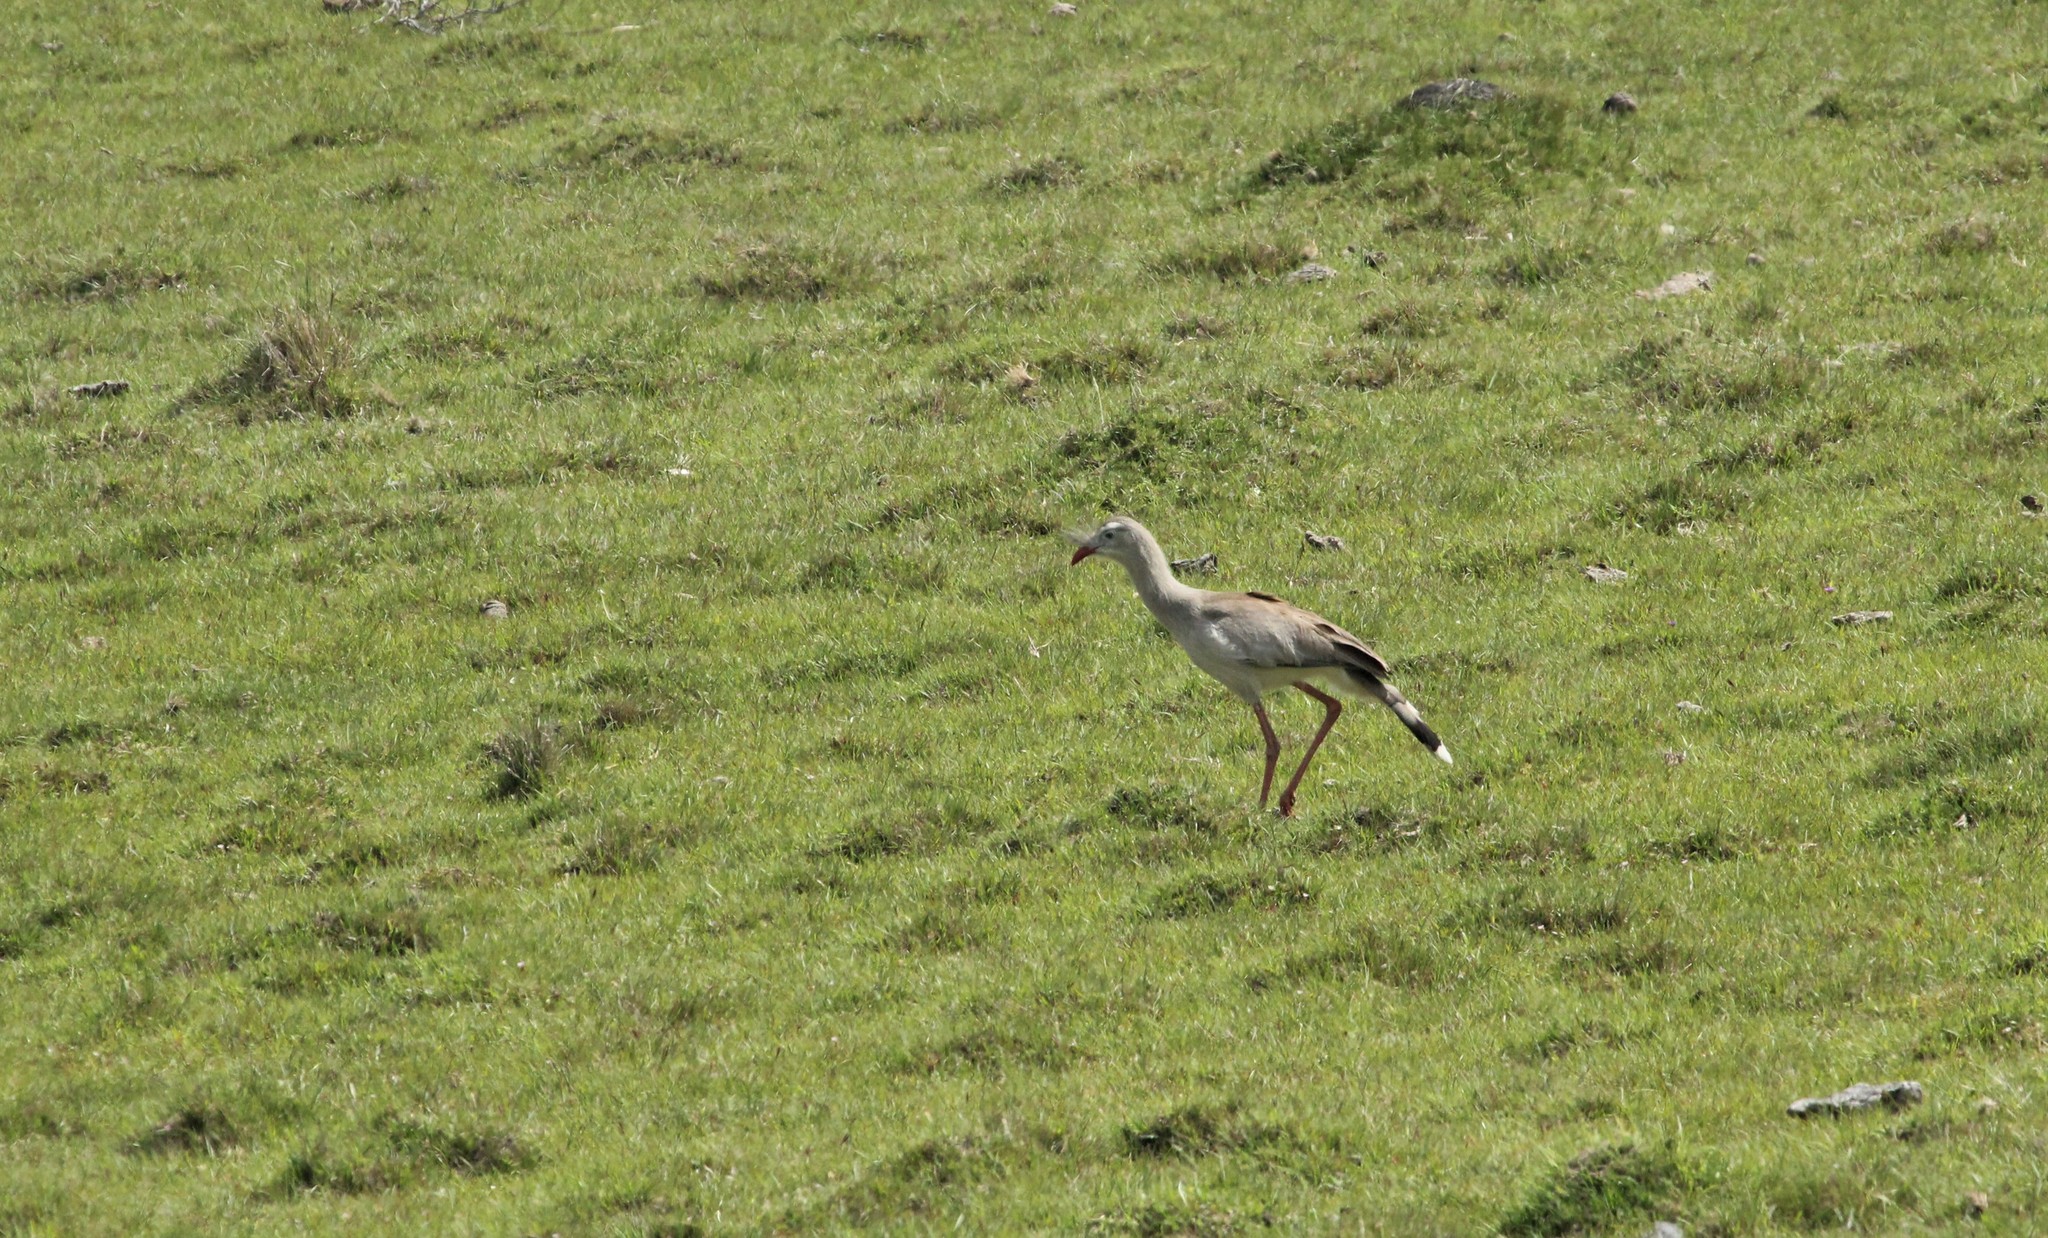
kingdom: Animalia
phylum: Chordata
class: Aves
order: Cariamiformes
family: Cariamidae
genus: Cariama
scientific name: Cariama cristata
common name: Red-legged seriema
